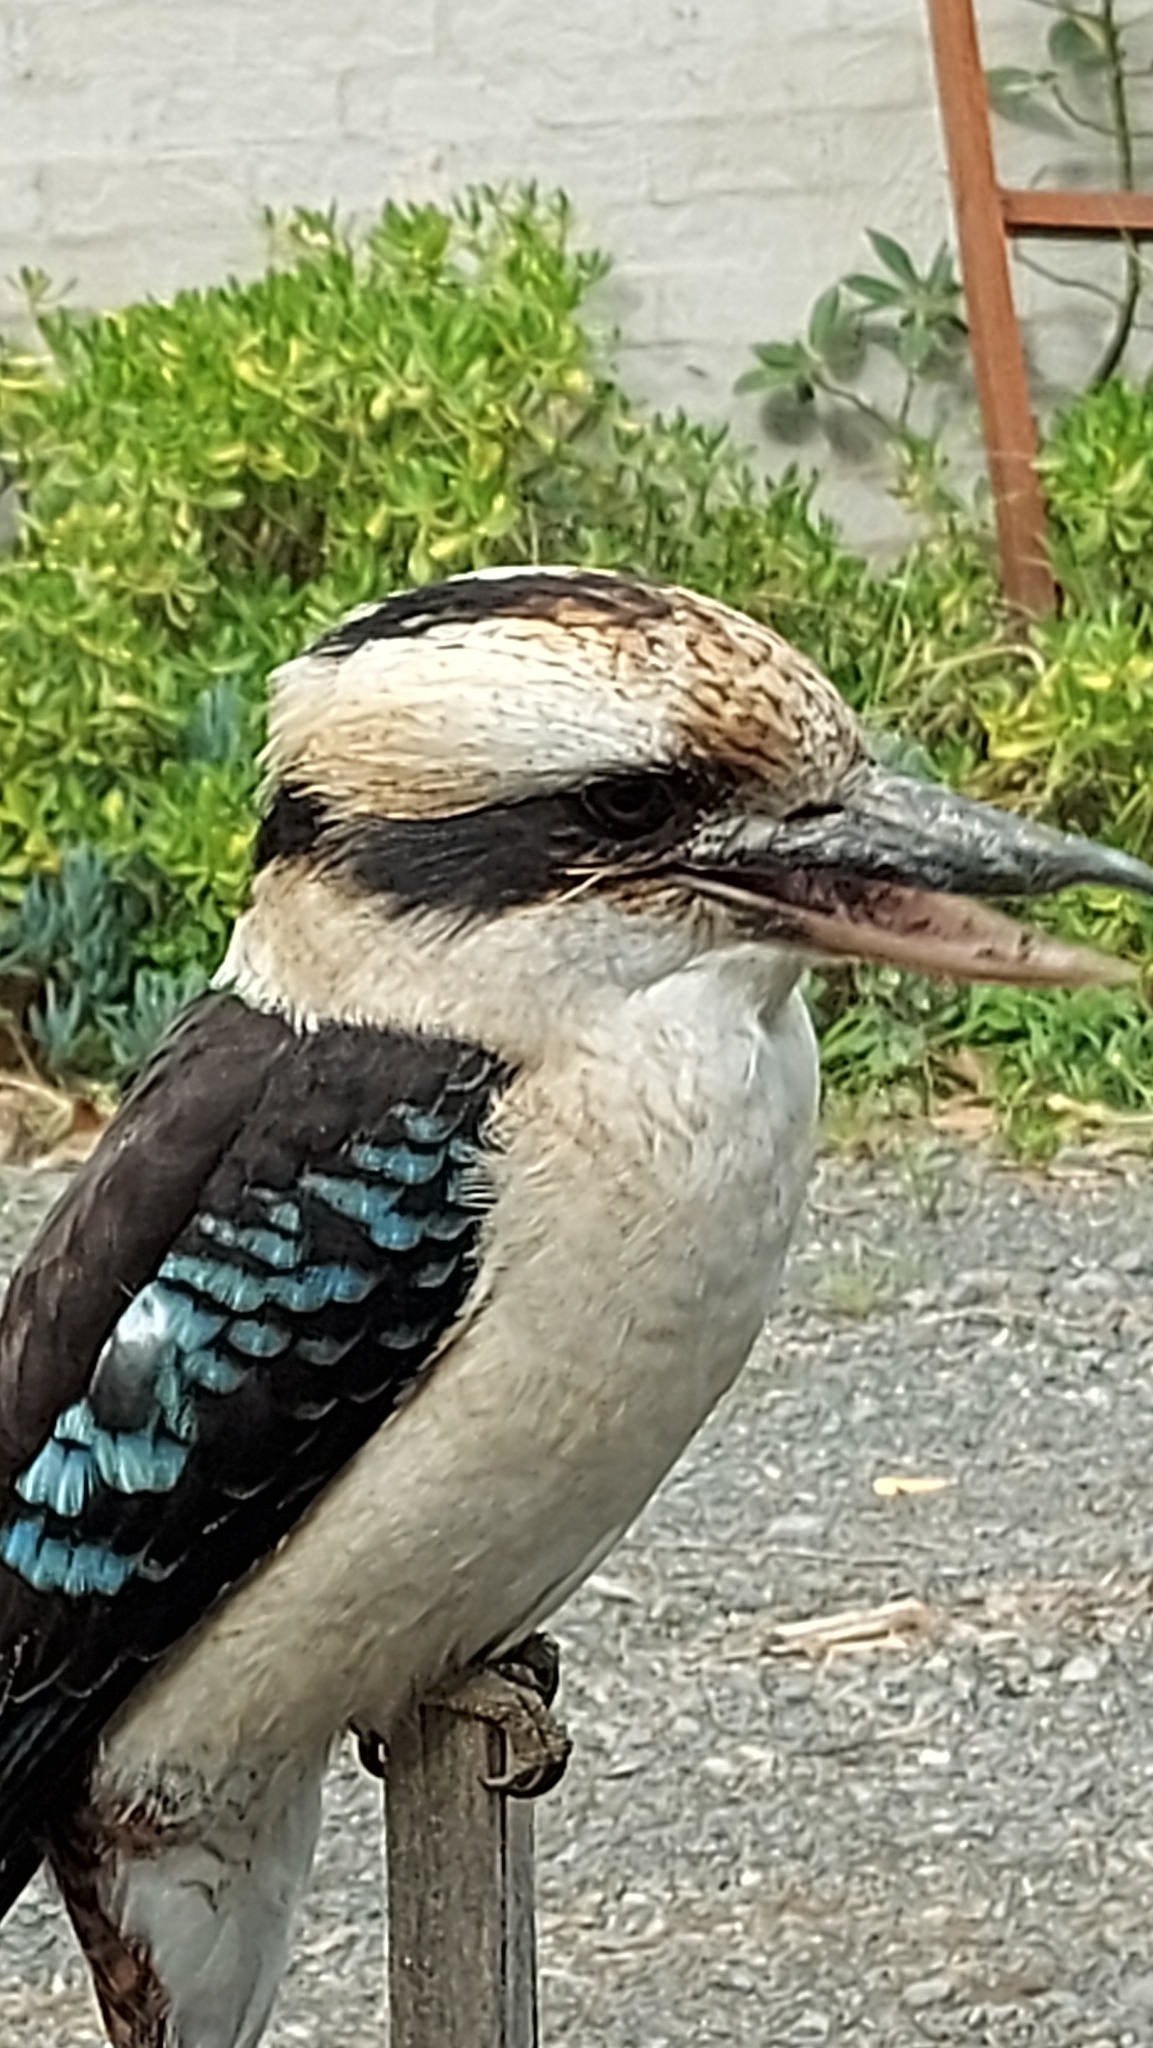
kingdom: Animalia
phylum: Chordata
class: Aves
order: Coraciiformes
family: Alcedinidae
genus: Dacelo
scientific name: Dacelo novaeguineae
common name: Laughing kookaburra
